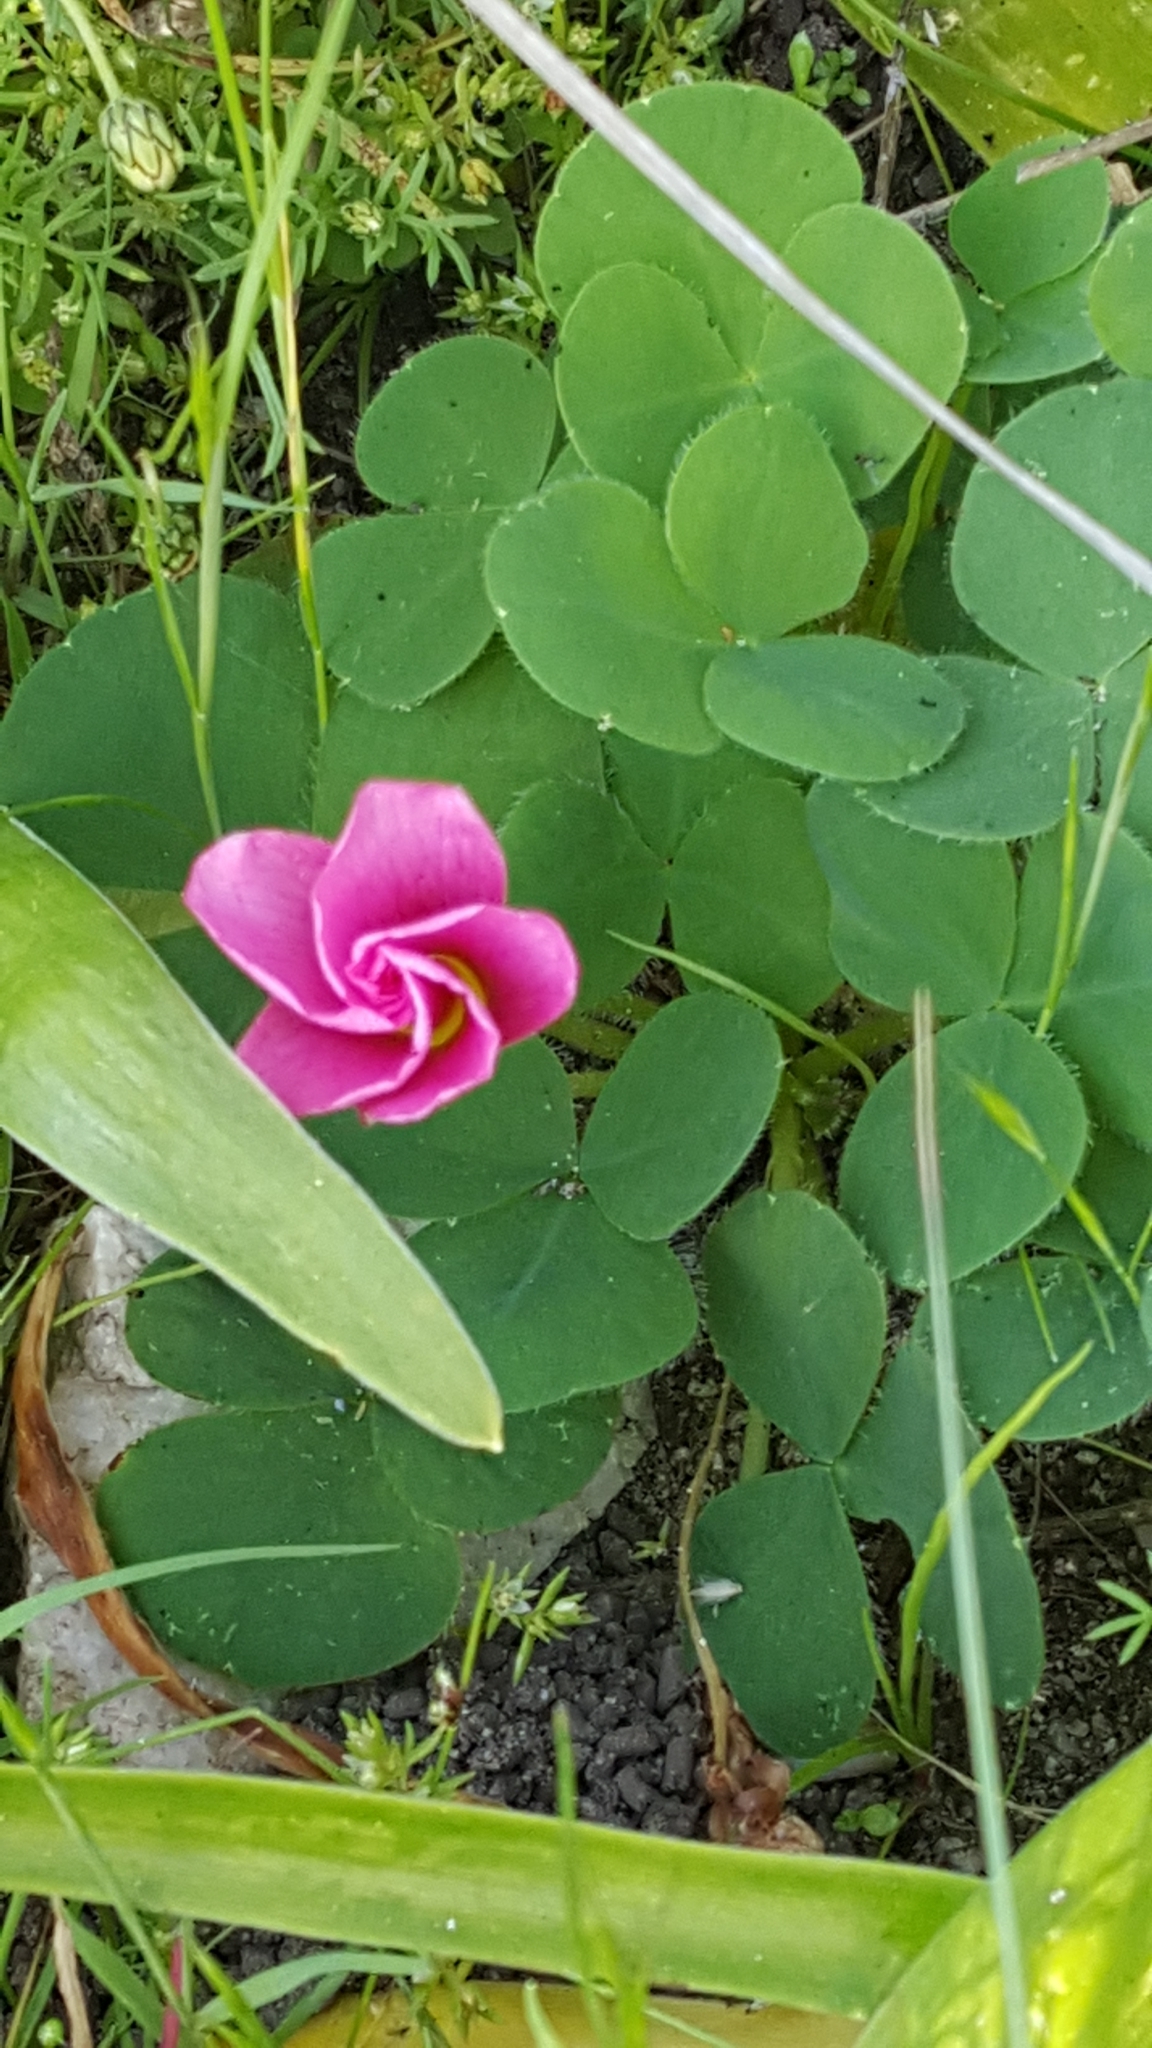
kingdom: Plantae
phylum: Tracheophyta
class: Magnoliopsida
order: Oxalidales
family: Oxalidaceae
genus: Oxalis
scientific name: Oxalis purpurea
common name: Purple woodsorrel
